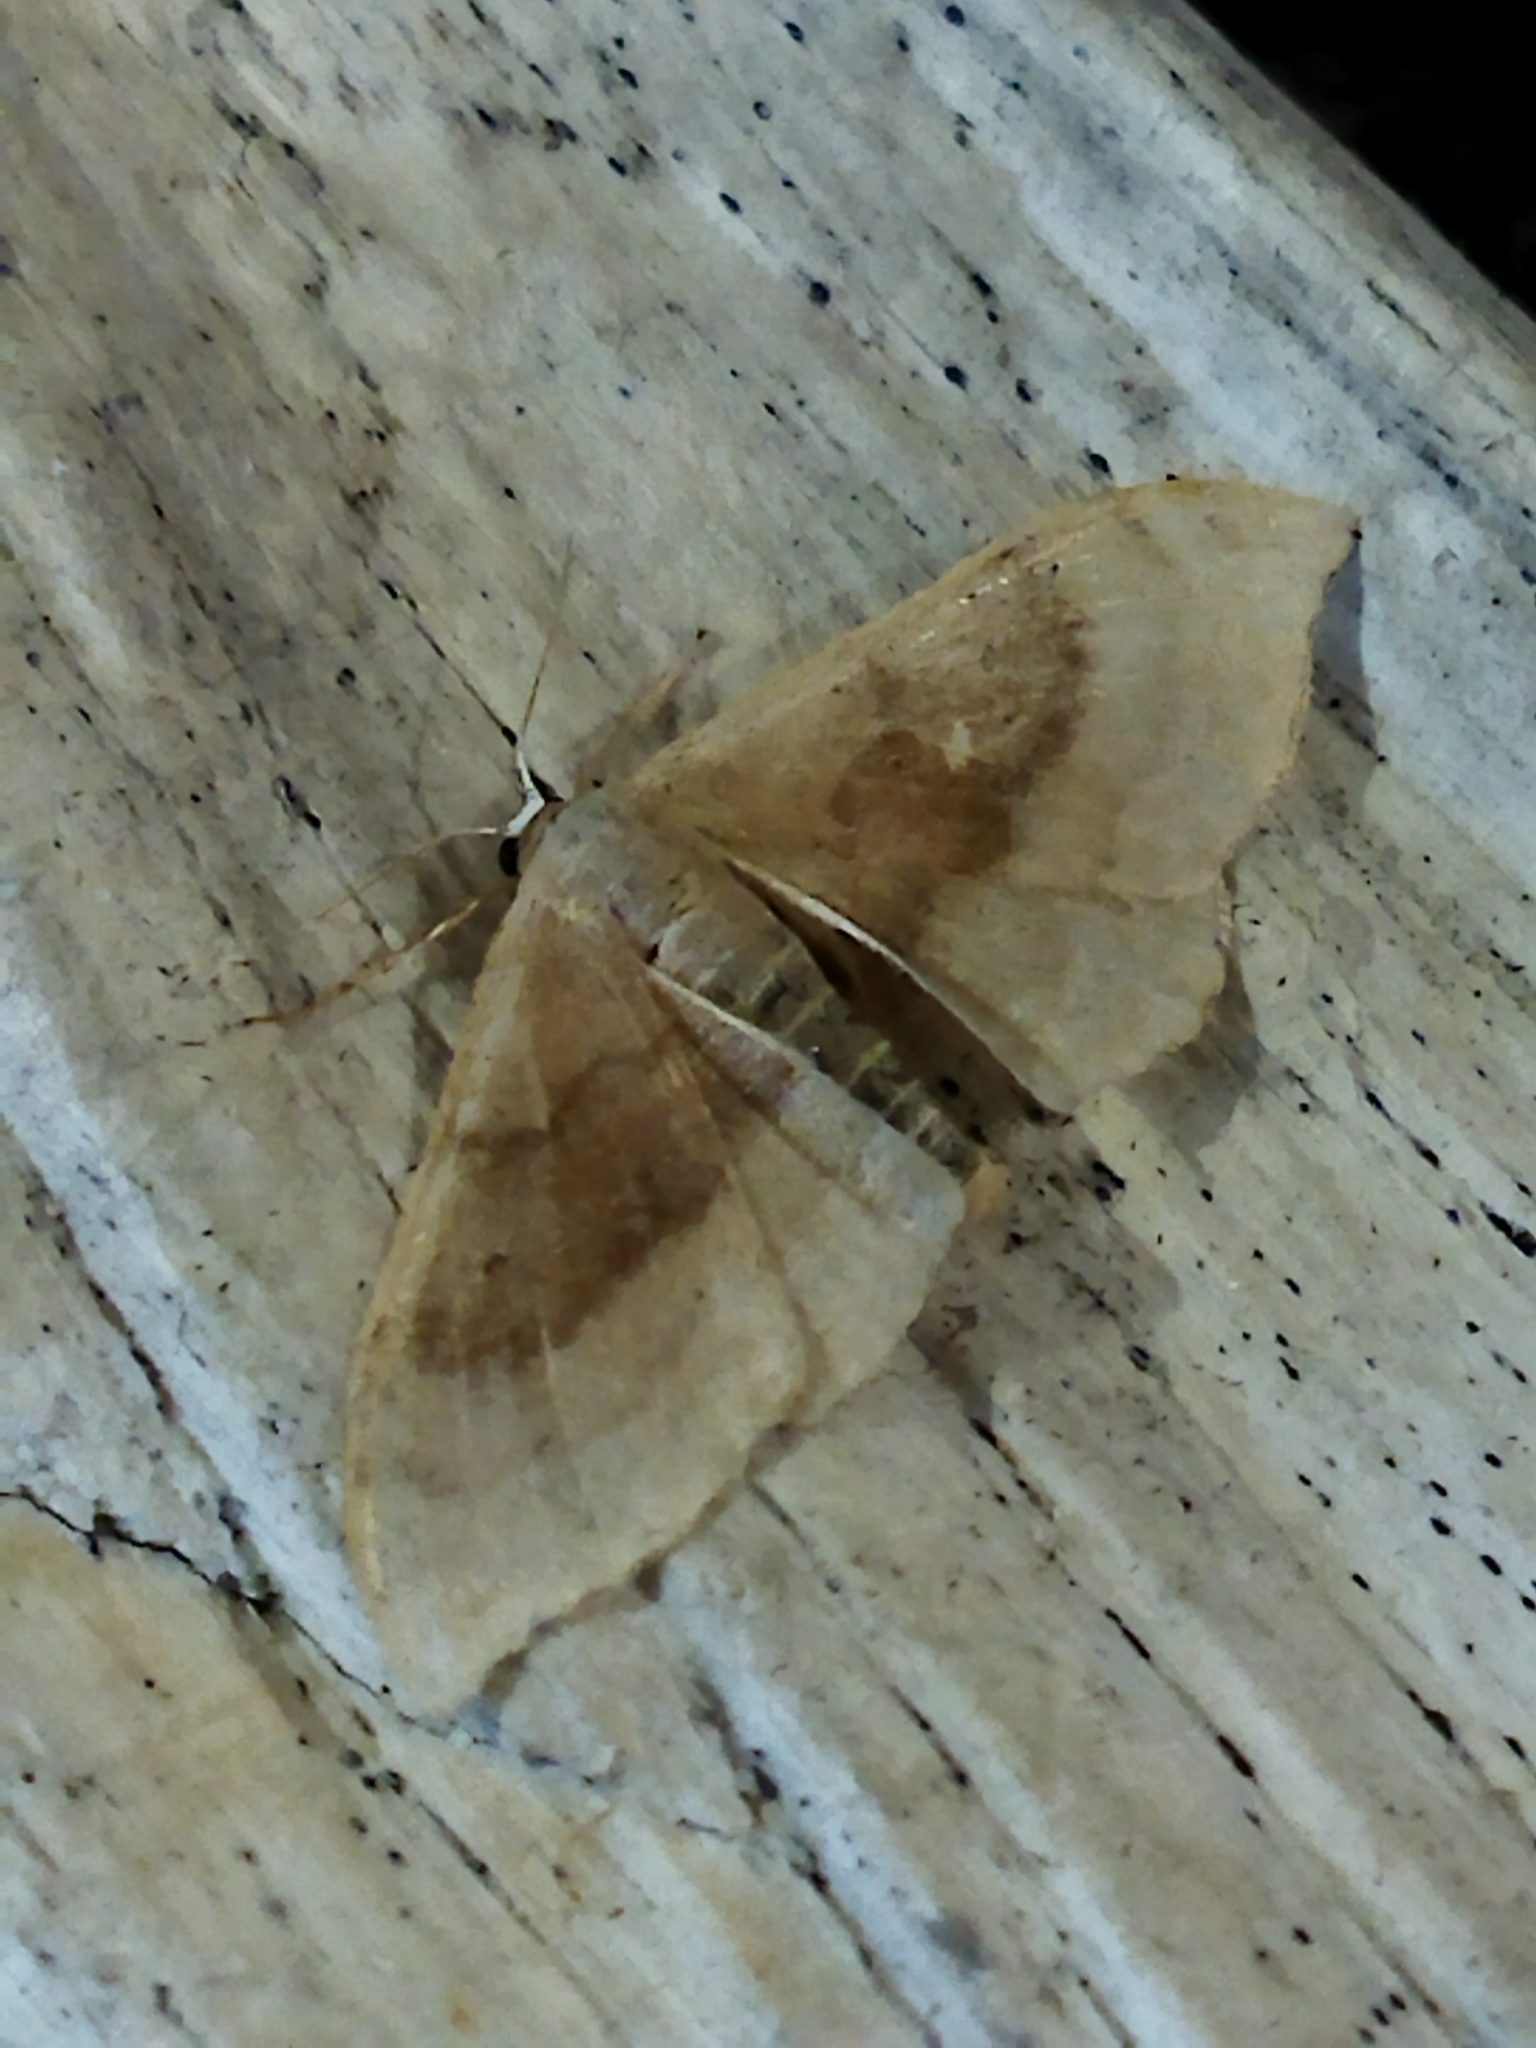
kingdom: Animalia
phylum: Arthropoda
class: Insecta
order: Lepidoptera
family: Geometridae
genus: Idaea
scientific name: Idaea degeneraria
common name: Portland ribbon wave
